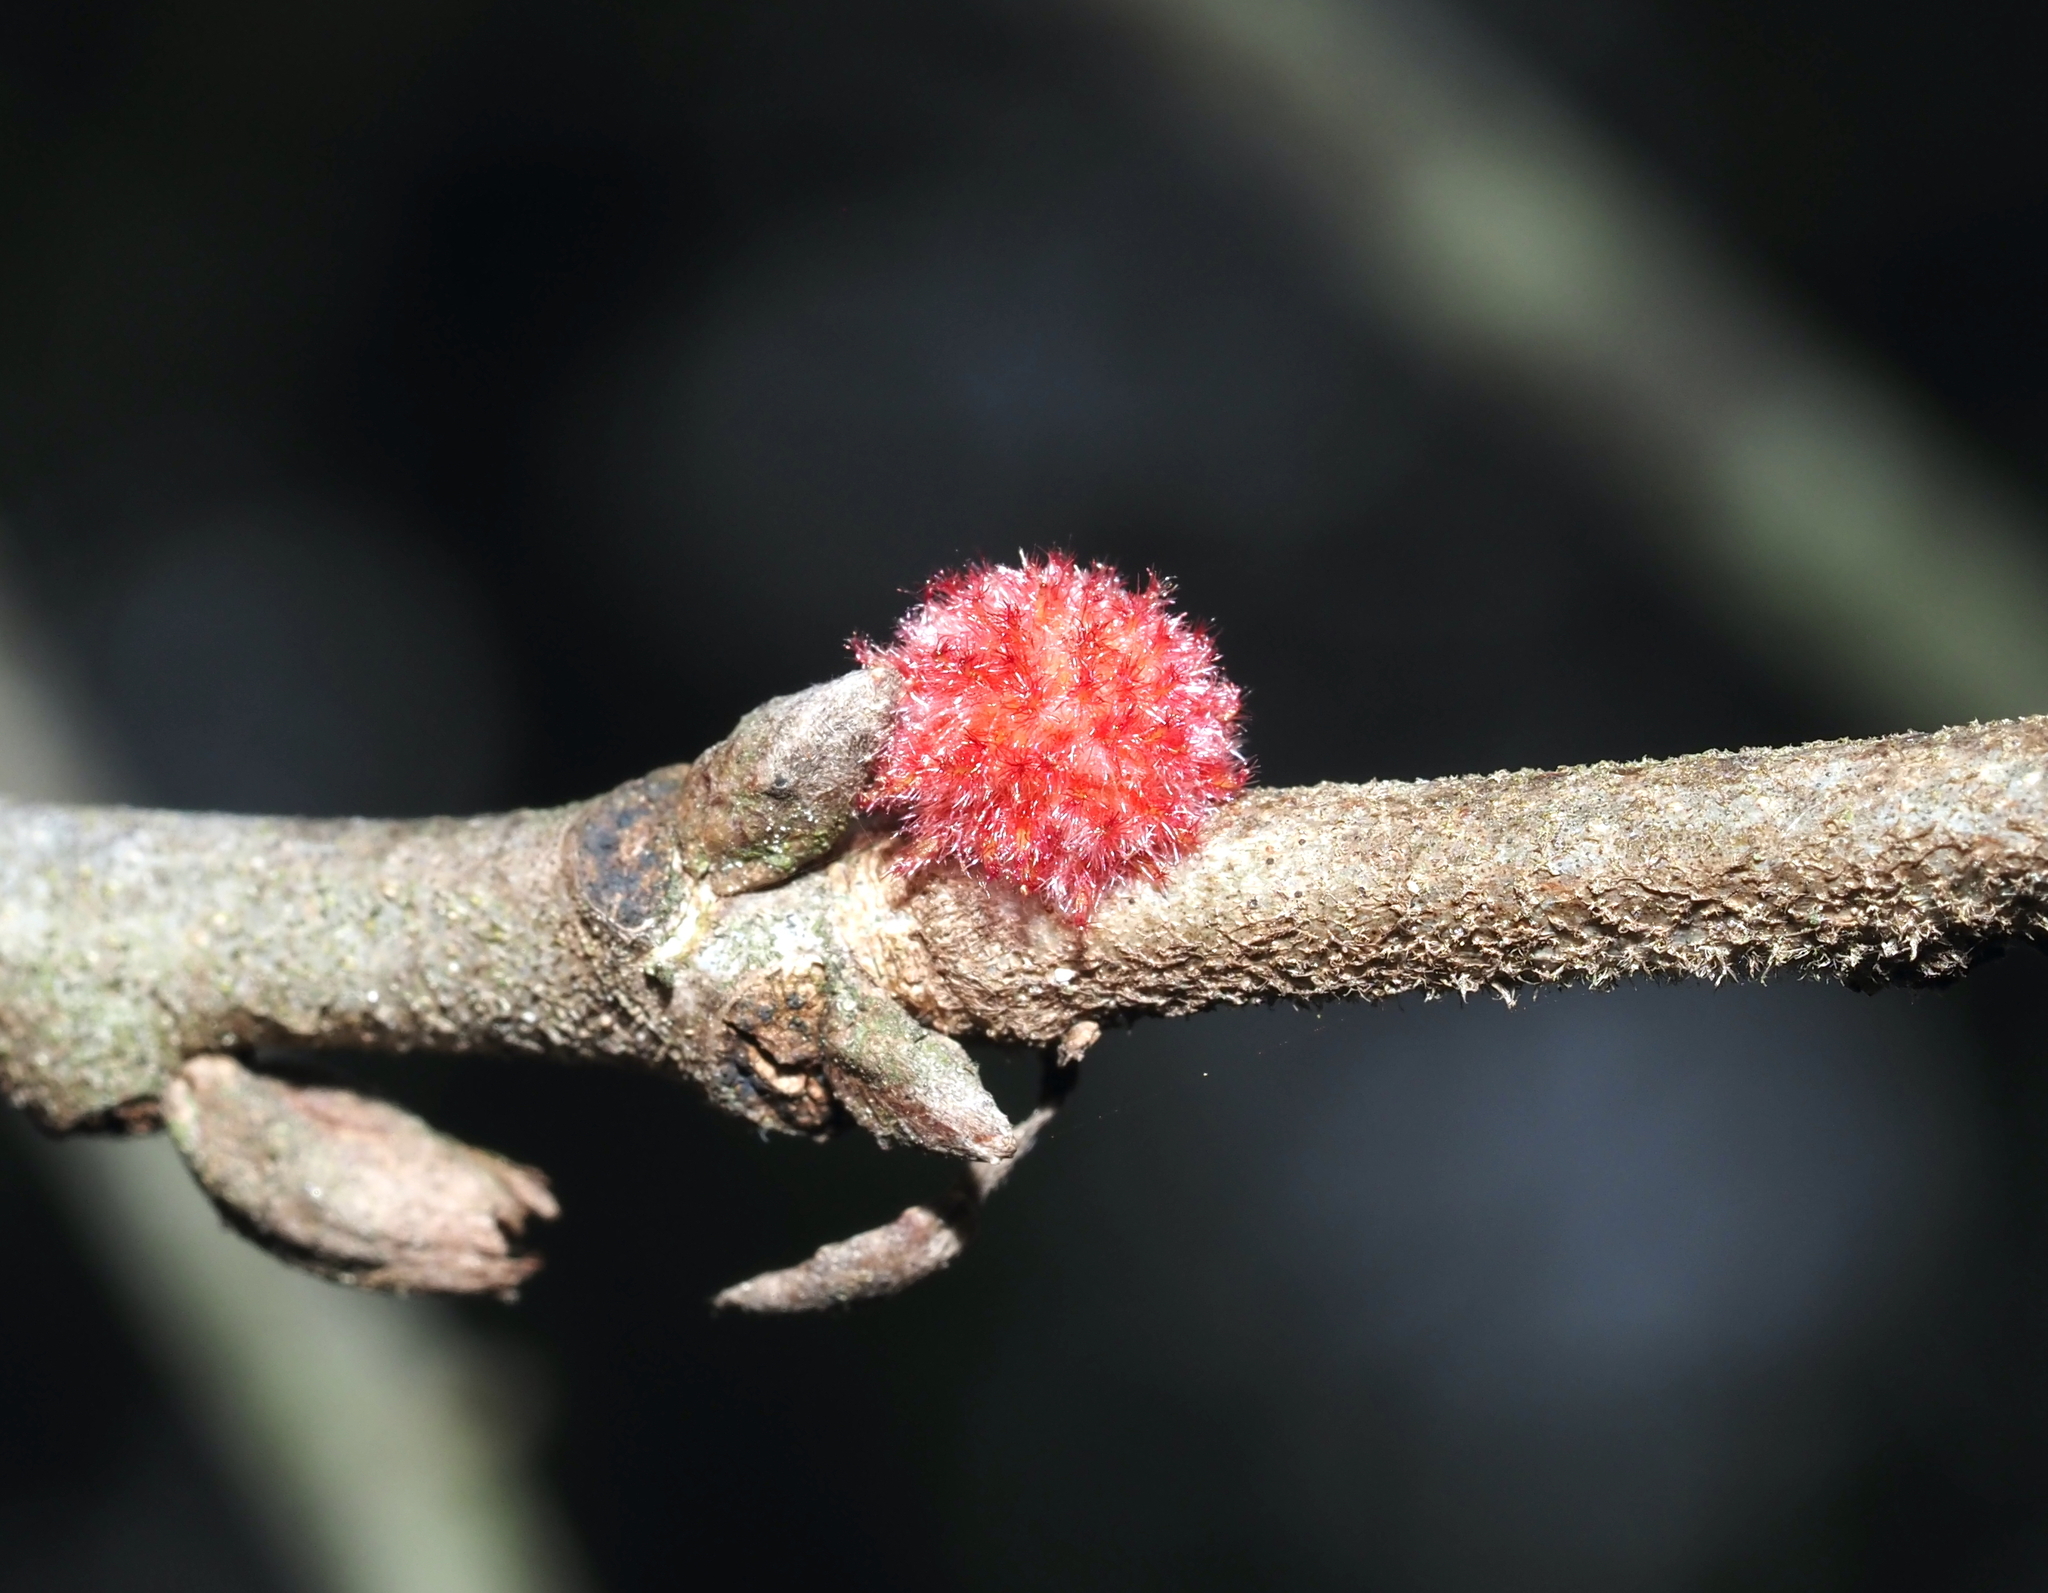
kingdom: Animalia
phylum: Arthropoda
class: Insecta
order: Hymenoptera
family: Cynipidae
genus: Dryocosmus
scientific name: Dryocosmus
